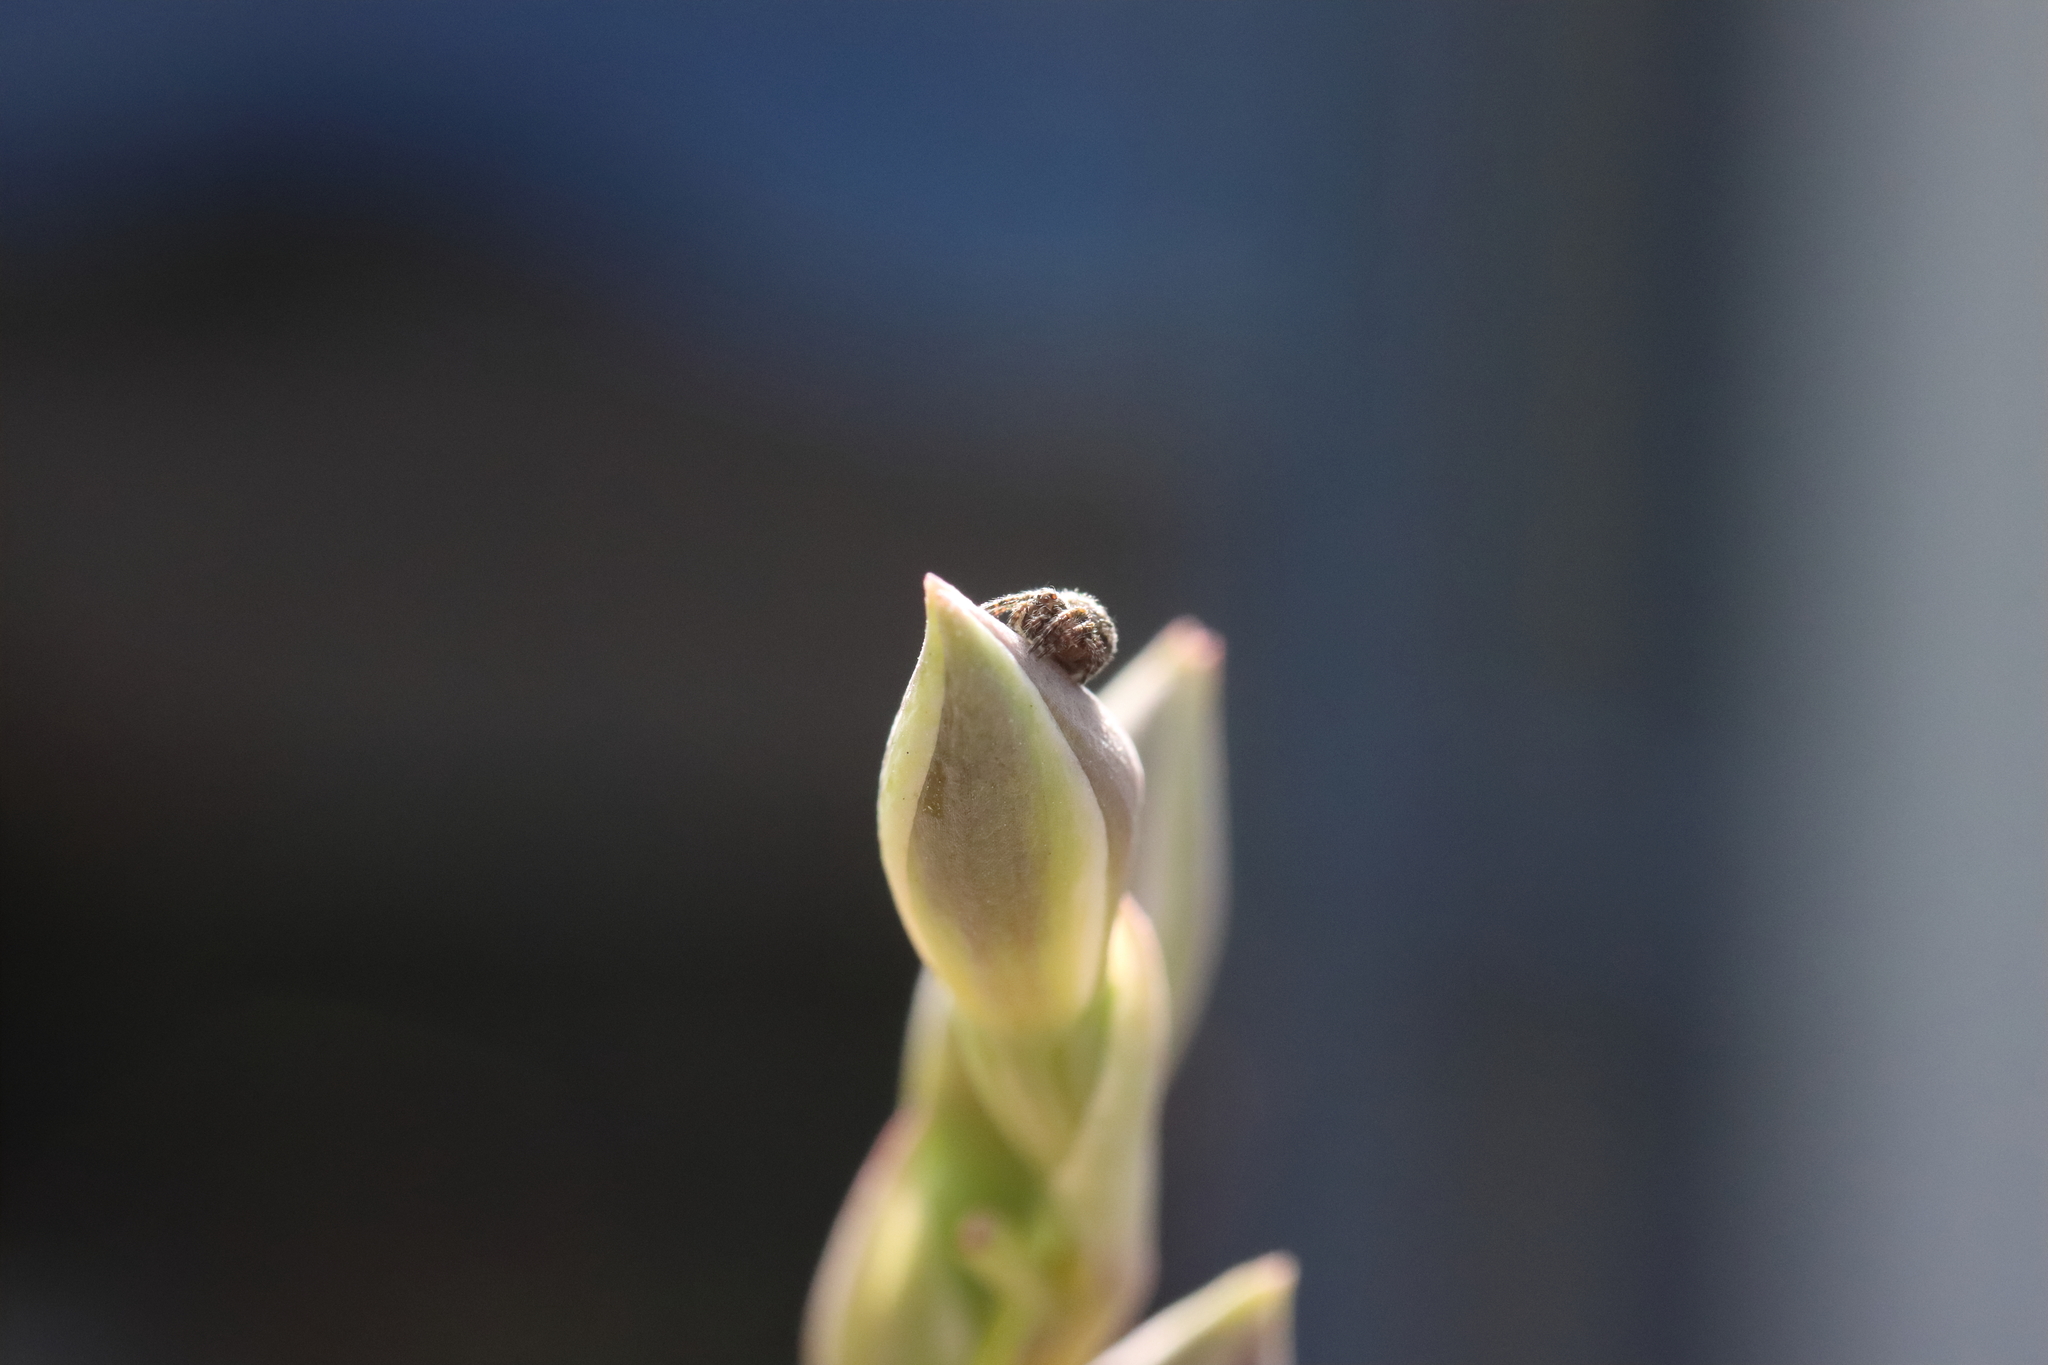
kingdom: Animalia
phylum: Arthropoda
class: Arachnida
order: Araneae
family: Araneidae
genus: Eriophora
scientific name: Eriophora pustulosa
